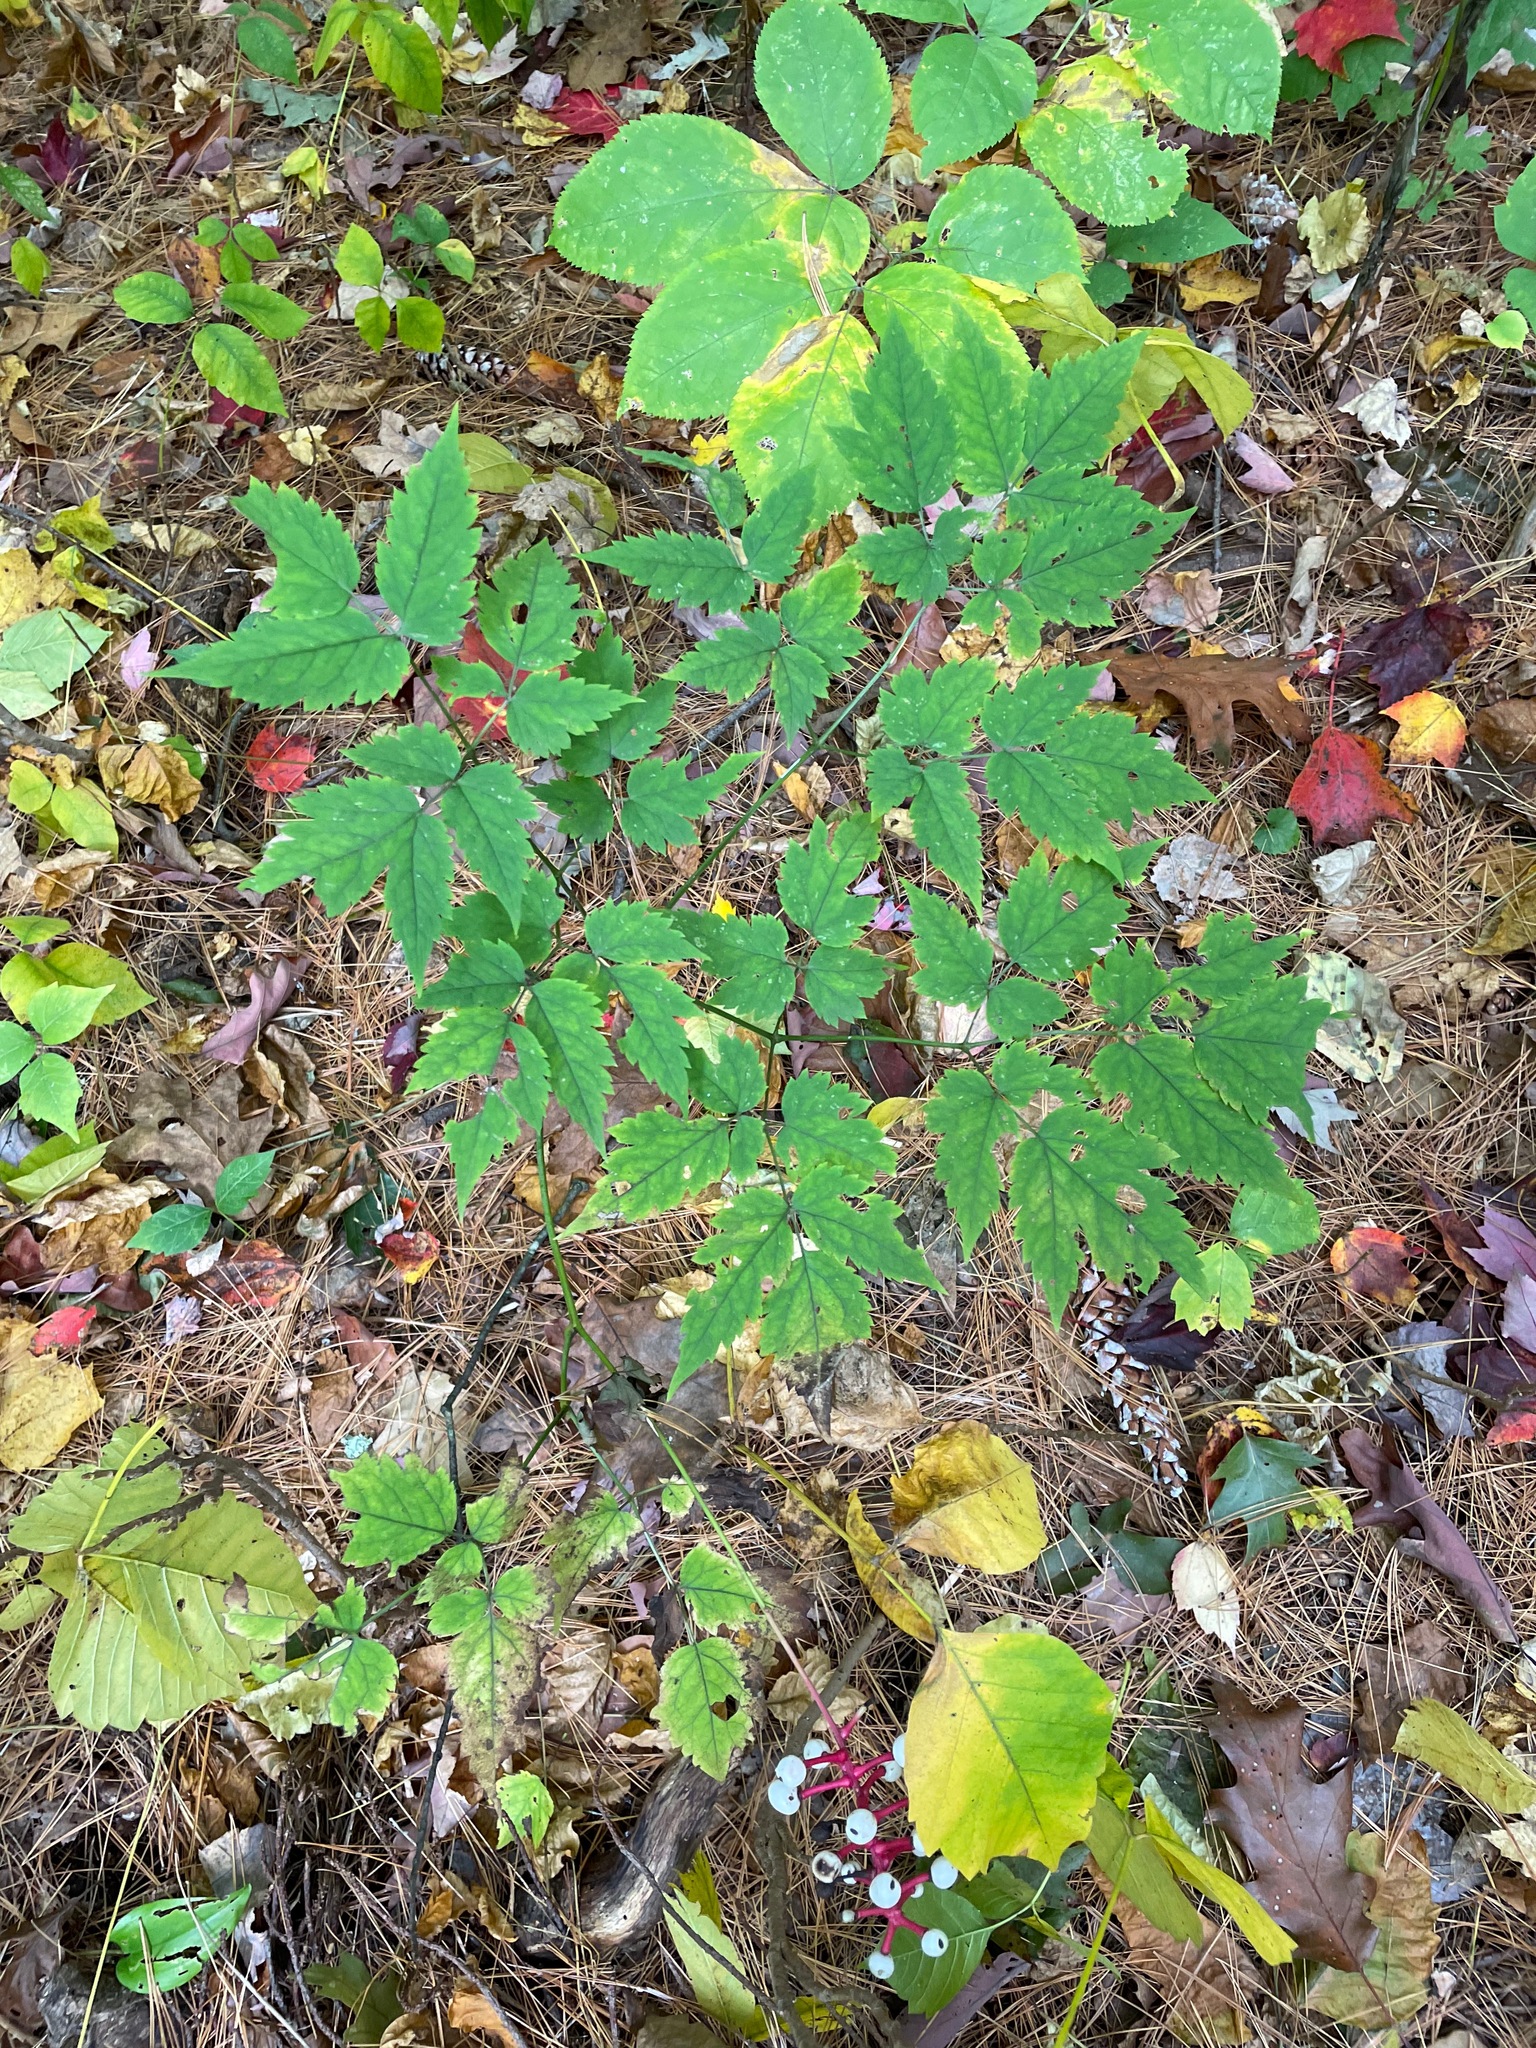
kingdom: Plantae
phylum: Tracheophyta
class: Magnoliopsida
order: Ranunculales
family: Ranunculaceae
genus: Actaea
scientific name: Actaea pachypoda
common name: Doll's-eyes
